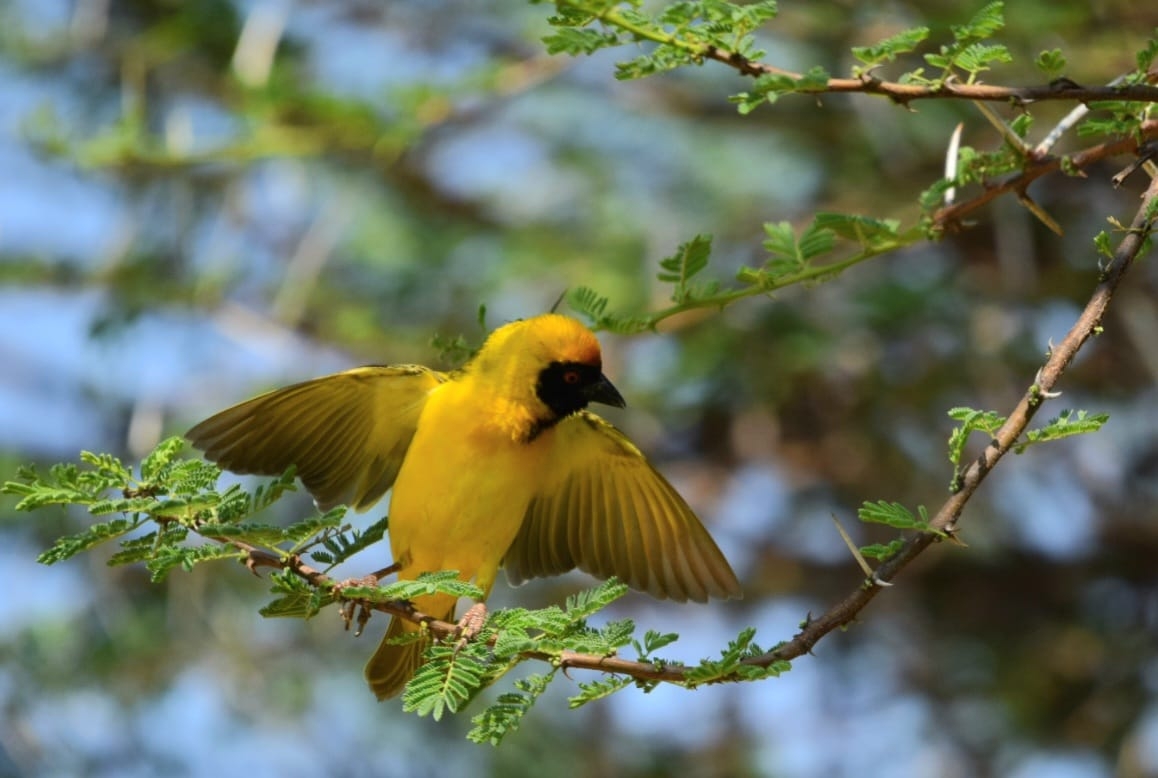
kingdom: Animalia
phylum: Chordata
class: Aves
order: Passeriformes
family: Ploceidae
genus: Ploceus
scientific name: Ploceus velatus
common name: Southern masked weaver
